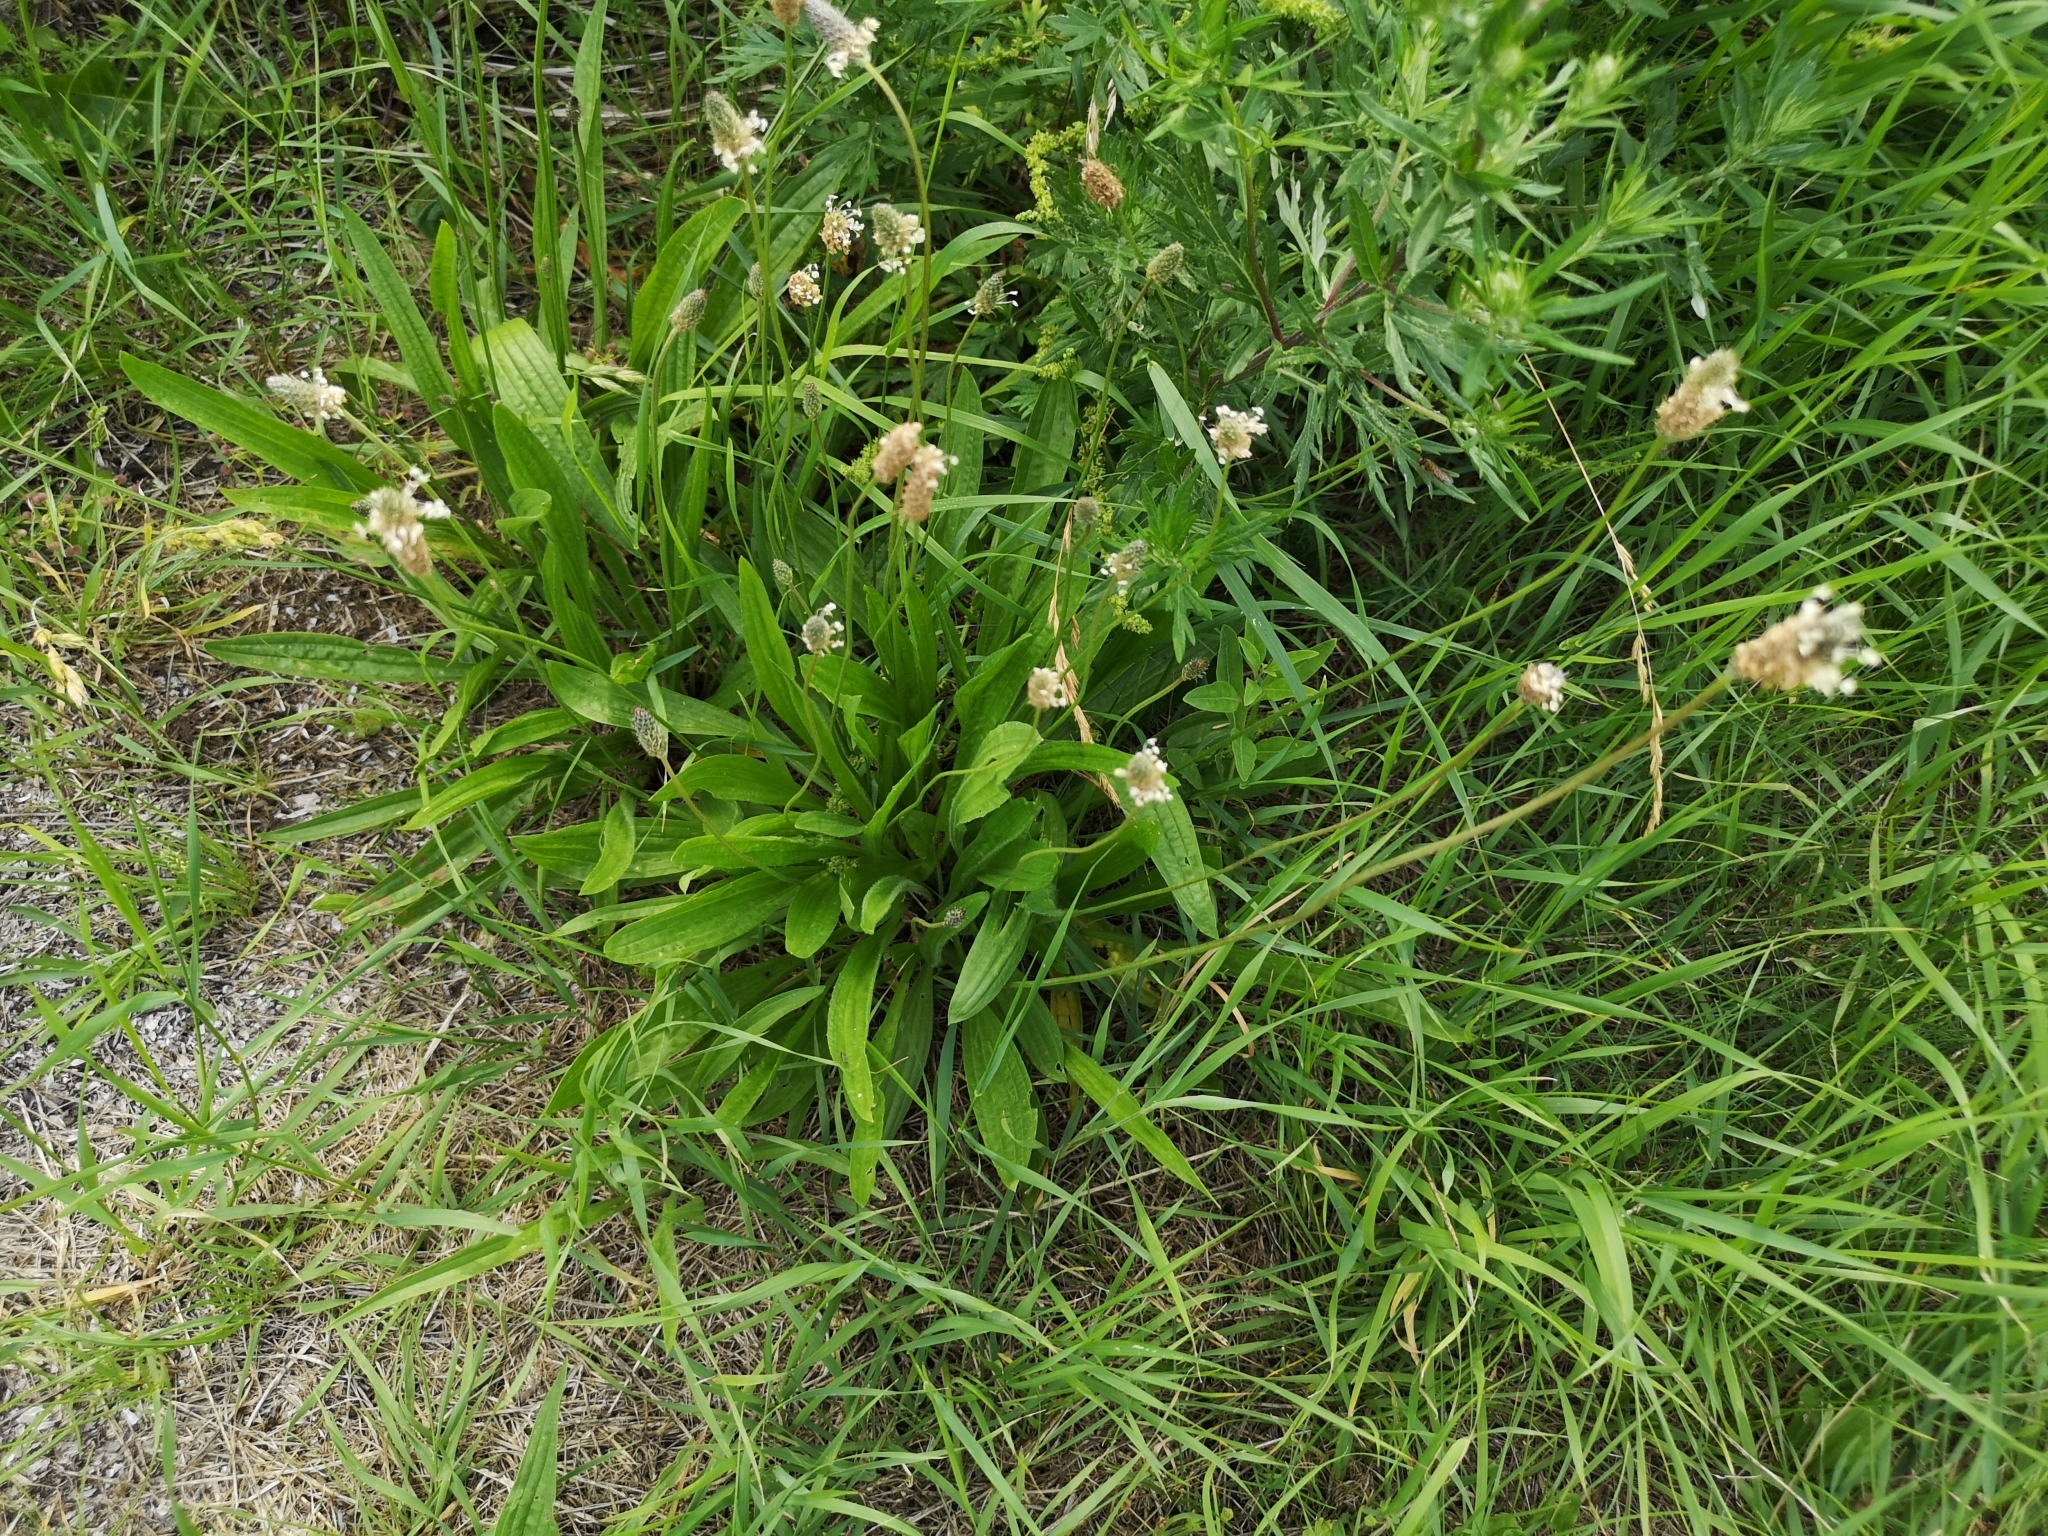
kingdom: Plantae
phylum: Tracheophyta
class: Magnoliopsida
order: Lamiales
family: Plantaginaceae
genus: Plantago
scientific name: Plantago lanceolata
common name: Ribwort plantain
